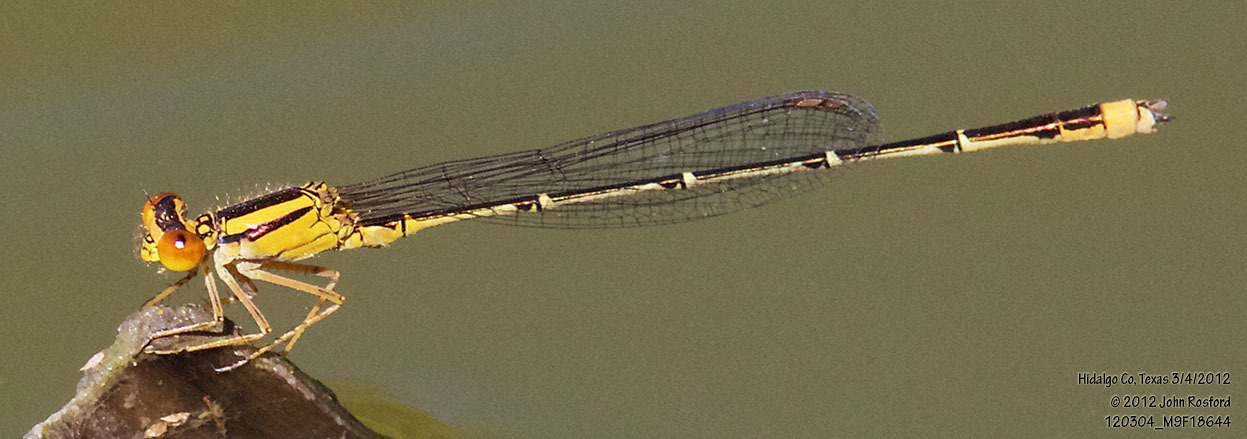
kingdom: Animalia
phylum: Arthropoda
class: Insecta
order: Odonata
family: Coenagrionidae
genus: Enallagma
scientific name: Enallagma signatum
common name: Orange bluet
